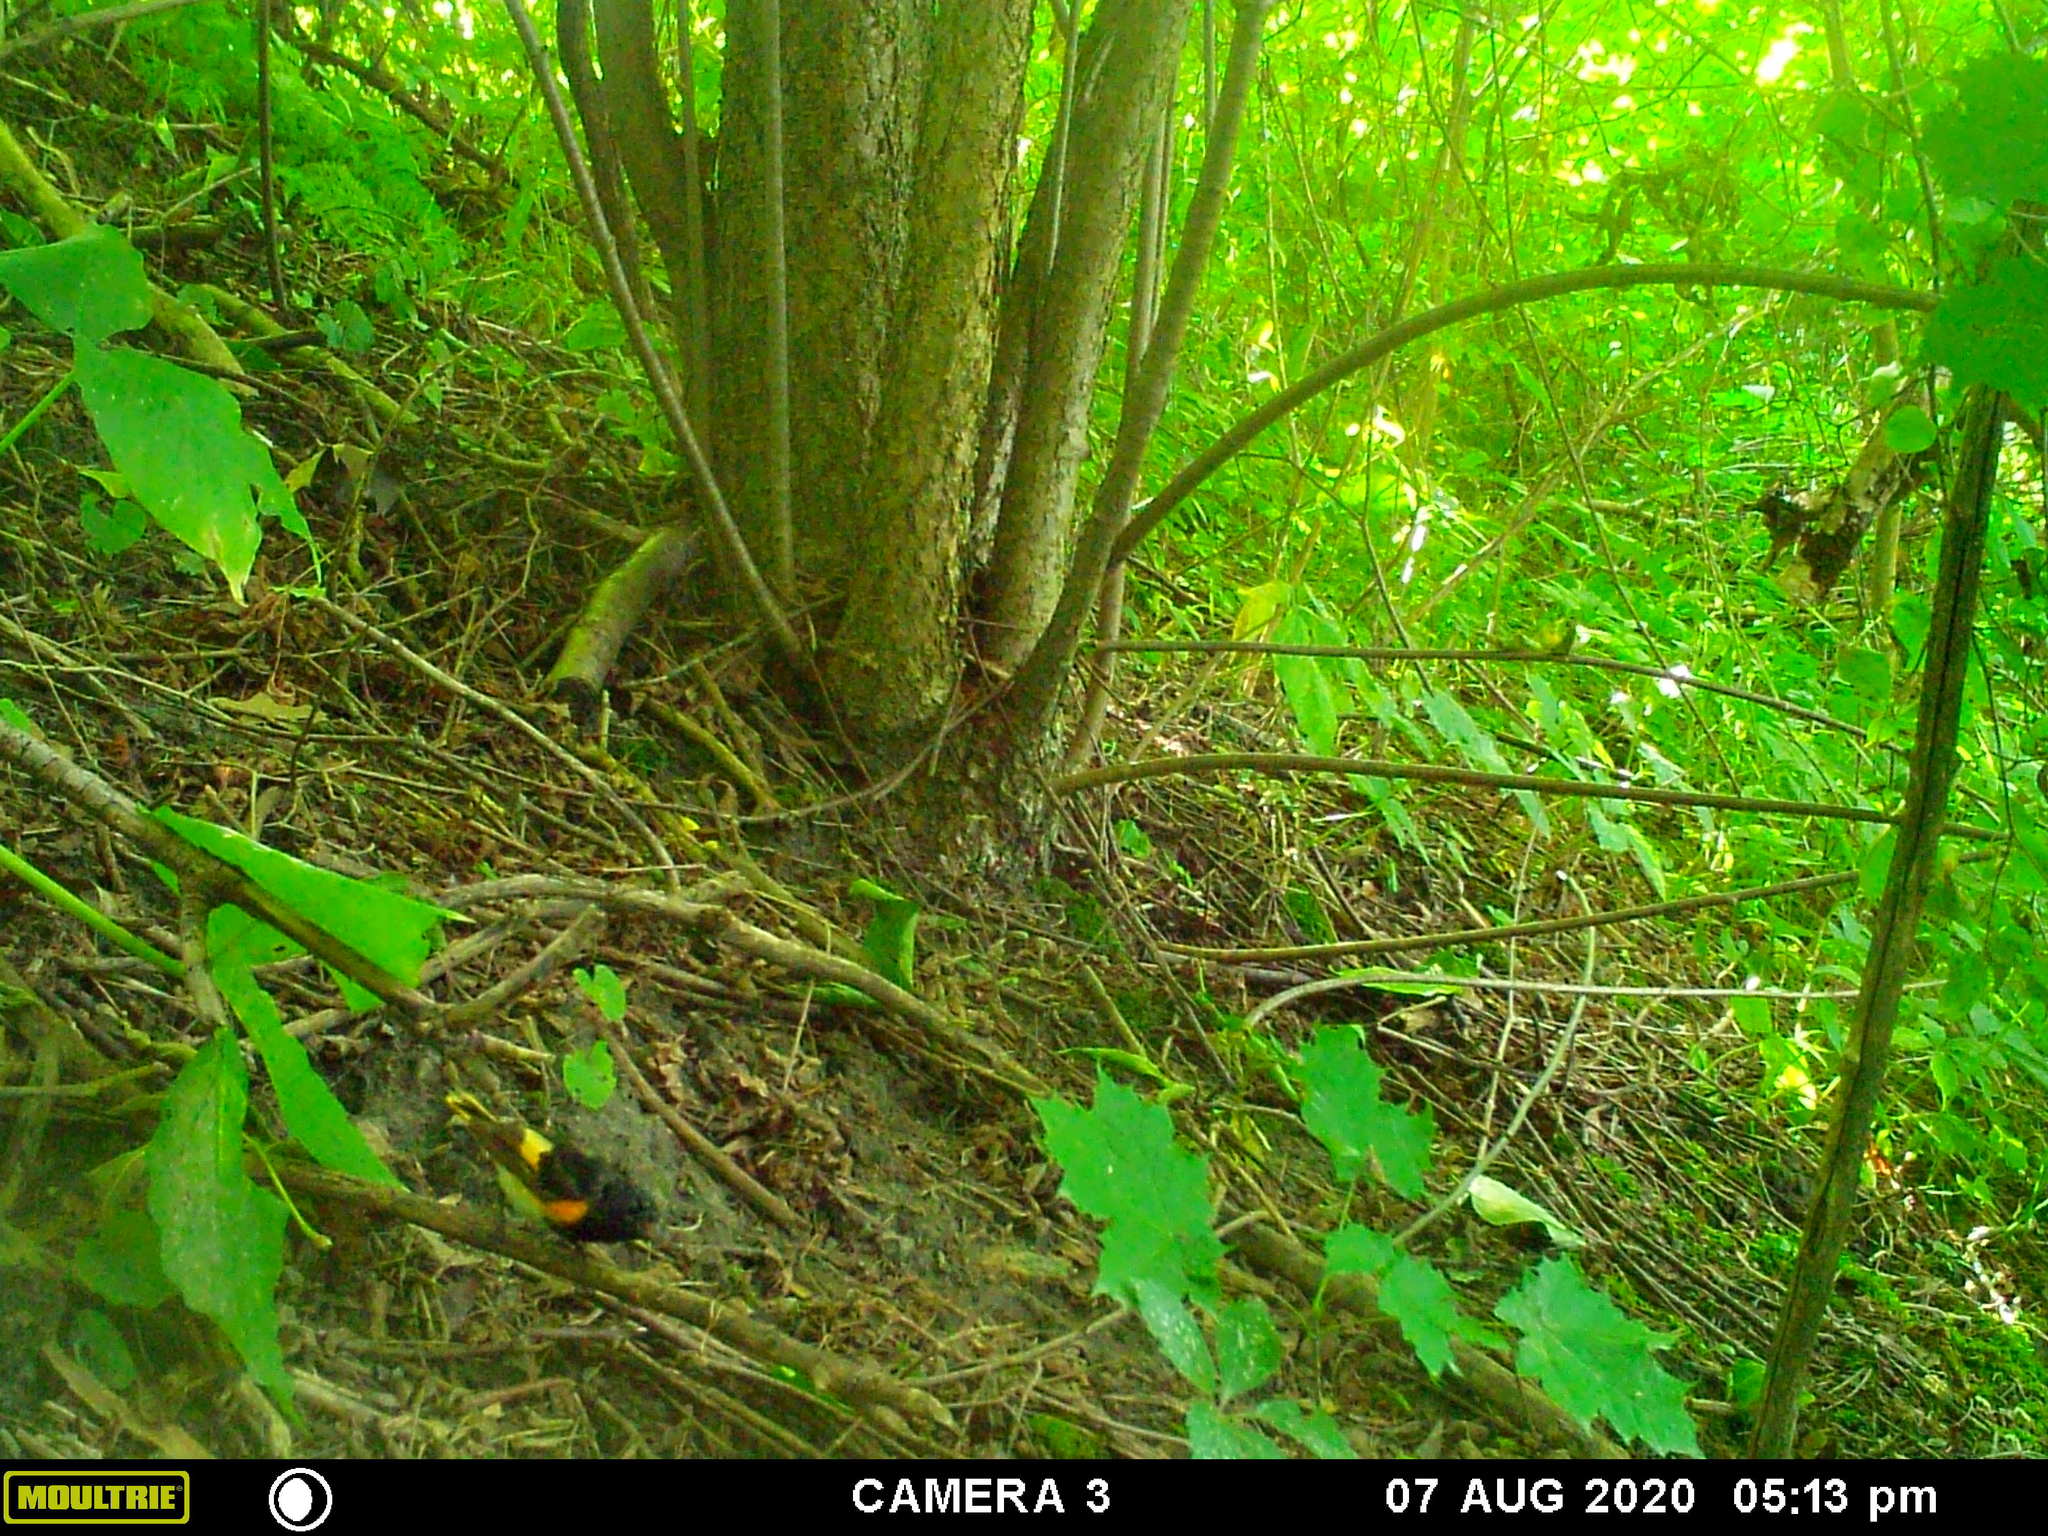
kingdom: Animalia
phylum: Chordata
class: Aves
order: Passeriformes
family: Parulidae
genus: Setophaga
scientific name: Setophaga ruticilla
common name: American redstart
